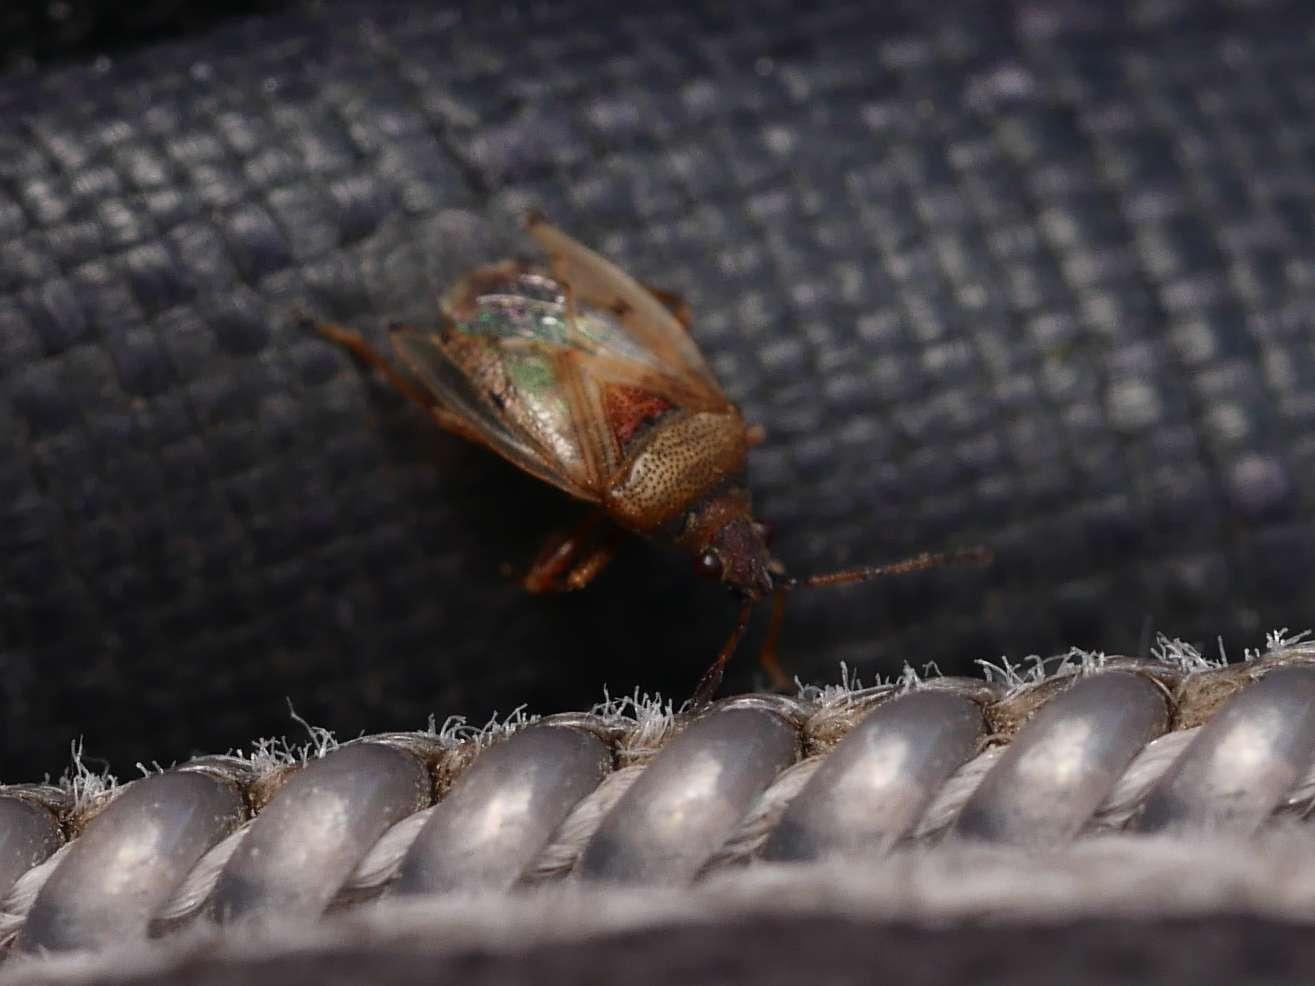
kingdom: Animalia
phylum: Arthropoda
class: Insecta
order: Hemiptera
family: Lygaeidae
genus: Kleidocerys
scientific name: Kleidocerys resedae
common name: Birch catkin bug
